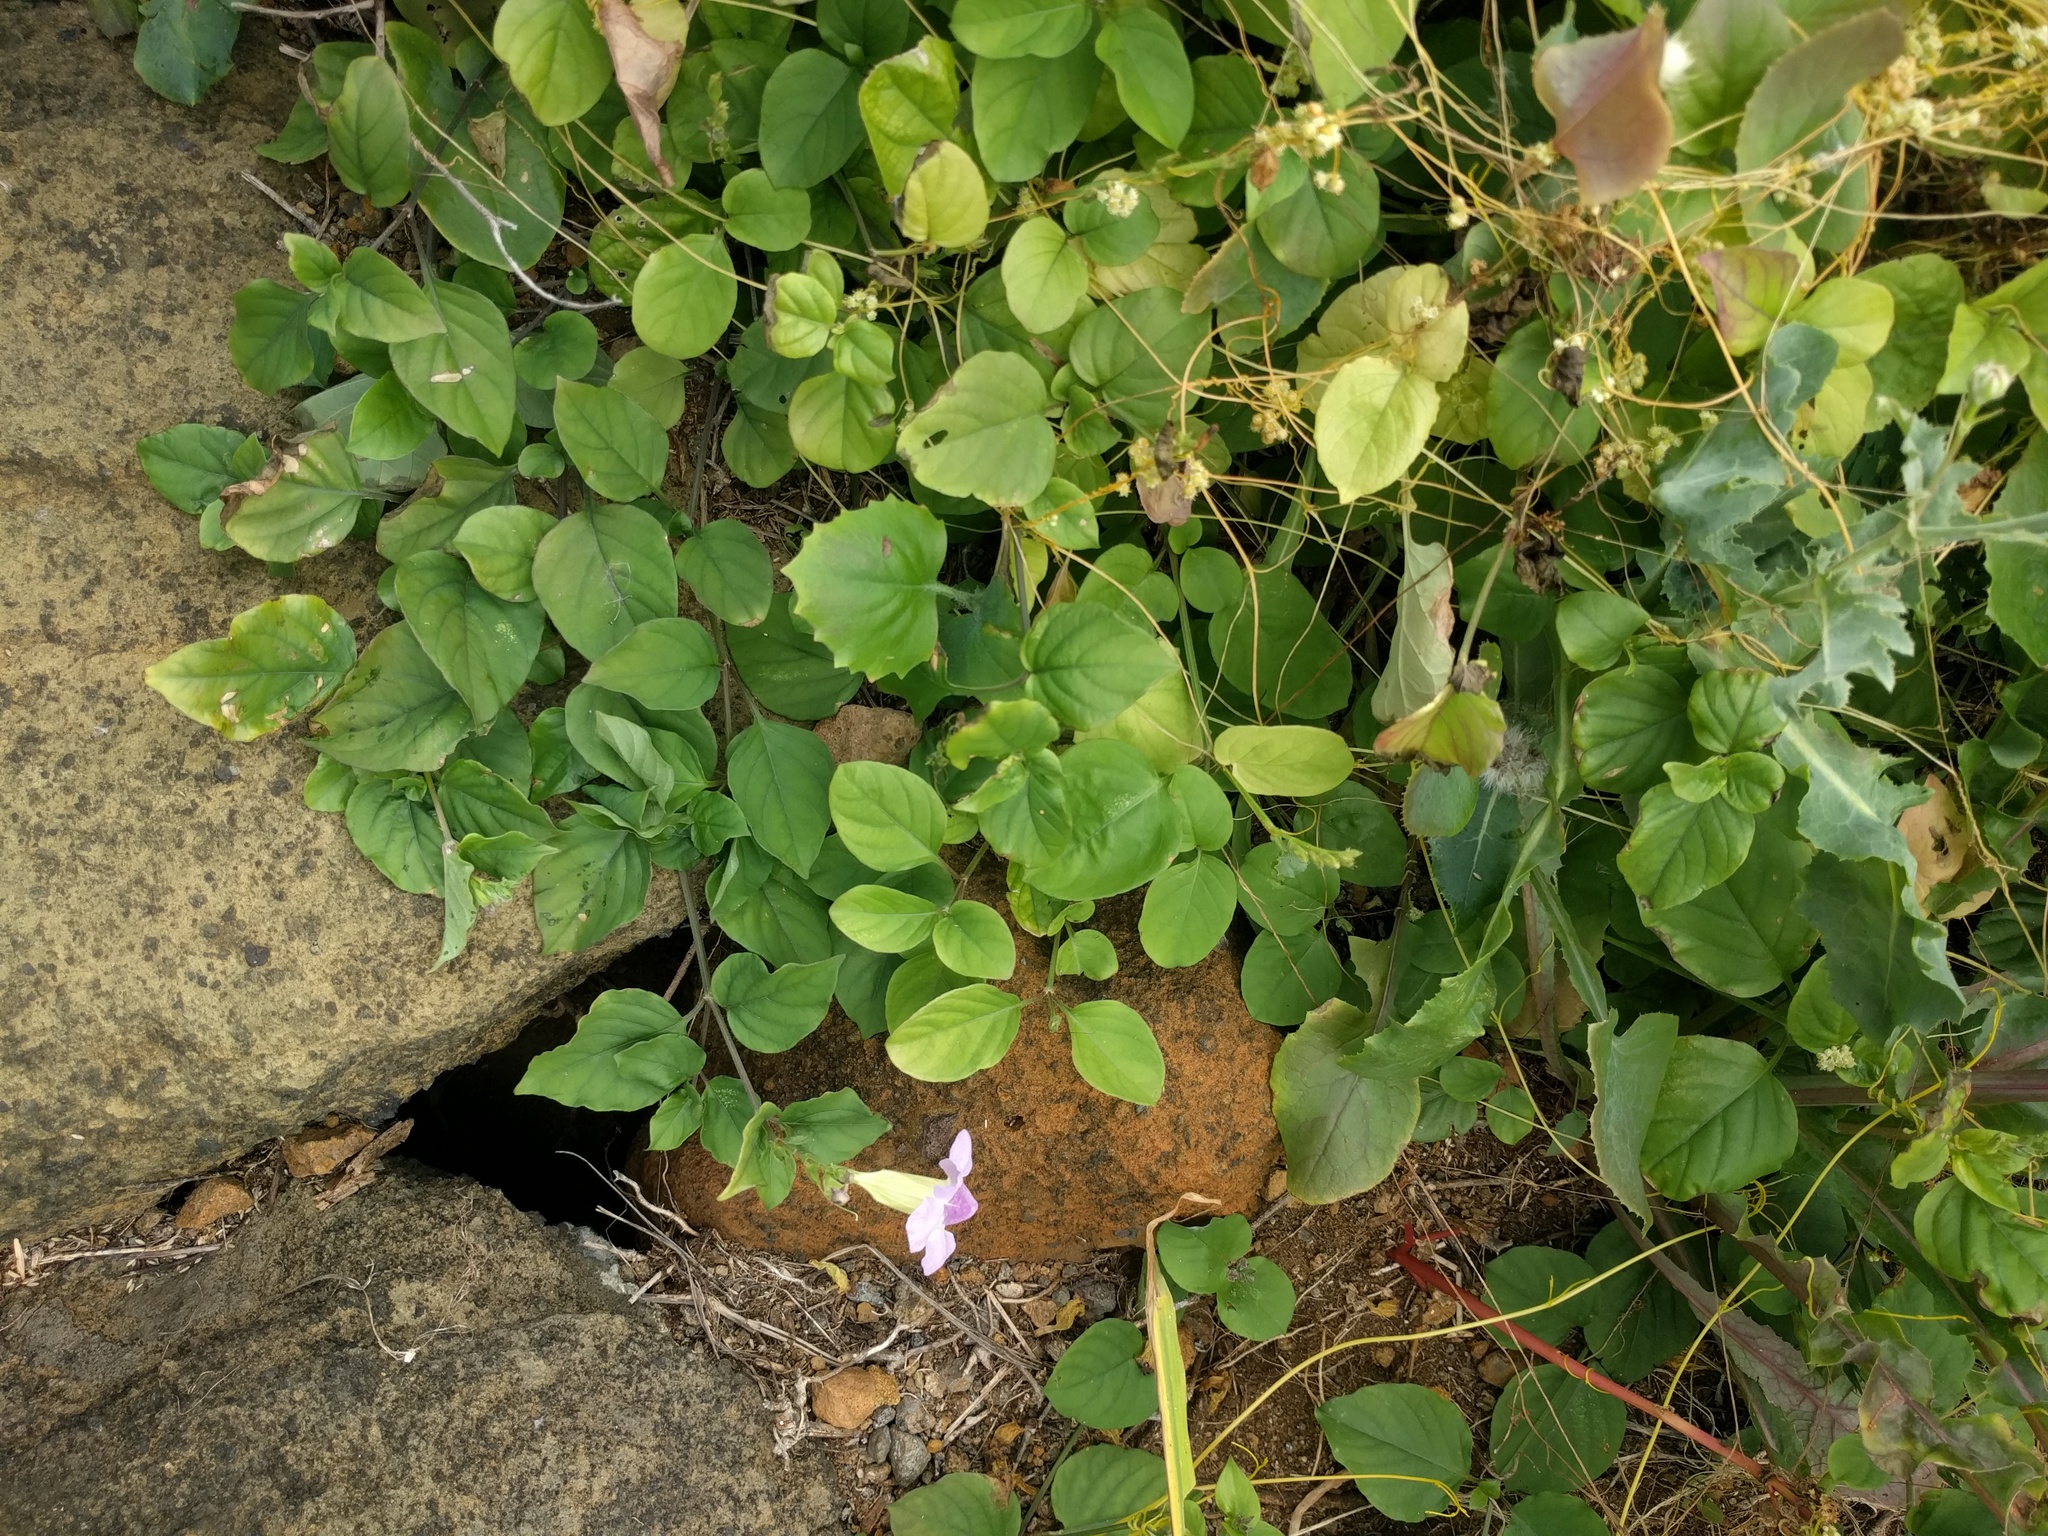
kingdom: Plantae
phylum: Tracheophyta
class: Magnoliopsida
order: Lamiales
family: Acanthaceae
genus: Asystasia
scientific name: Asystasia gangetica
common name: Chinese violet
